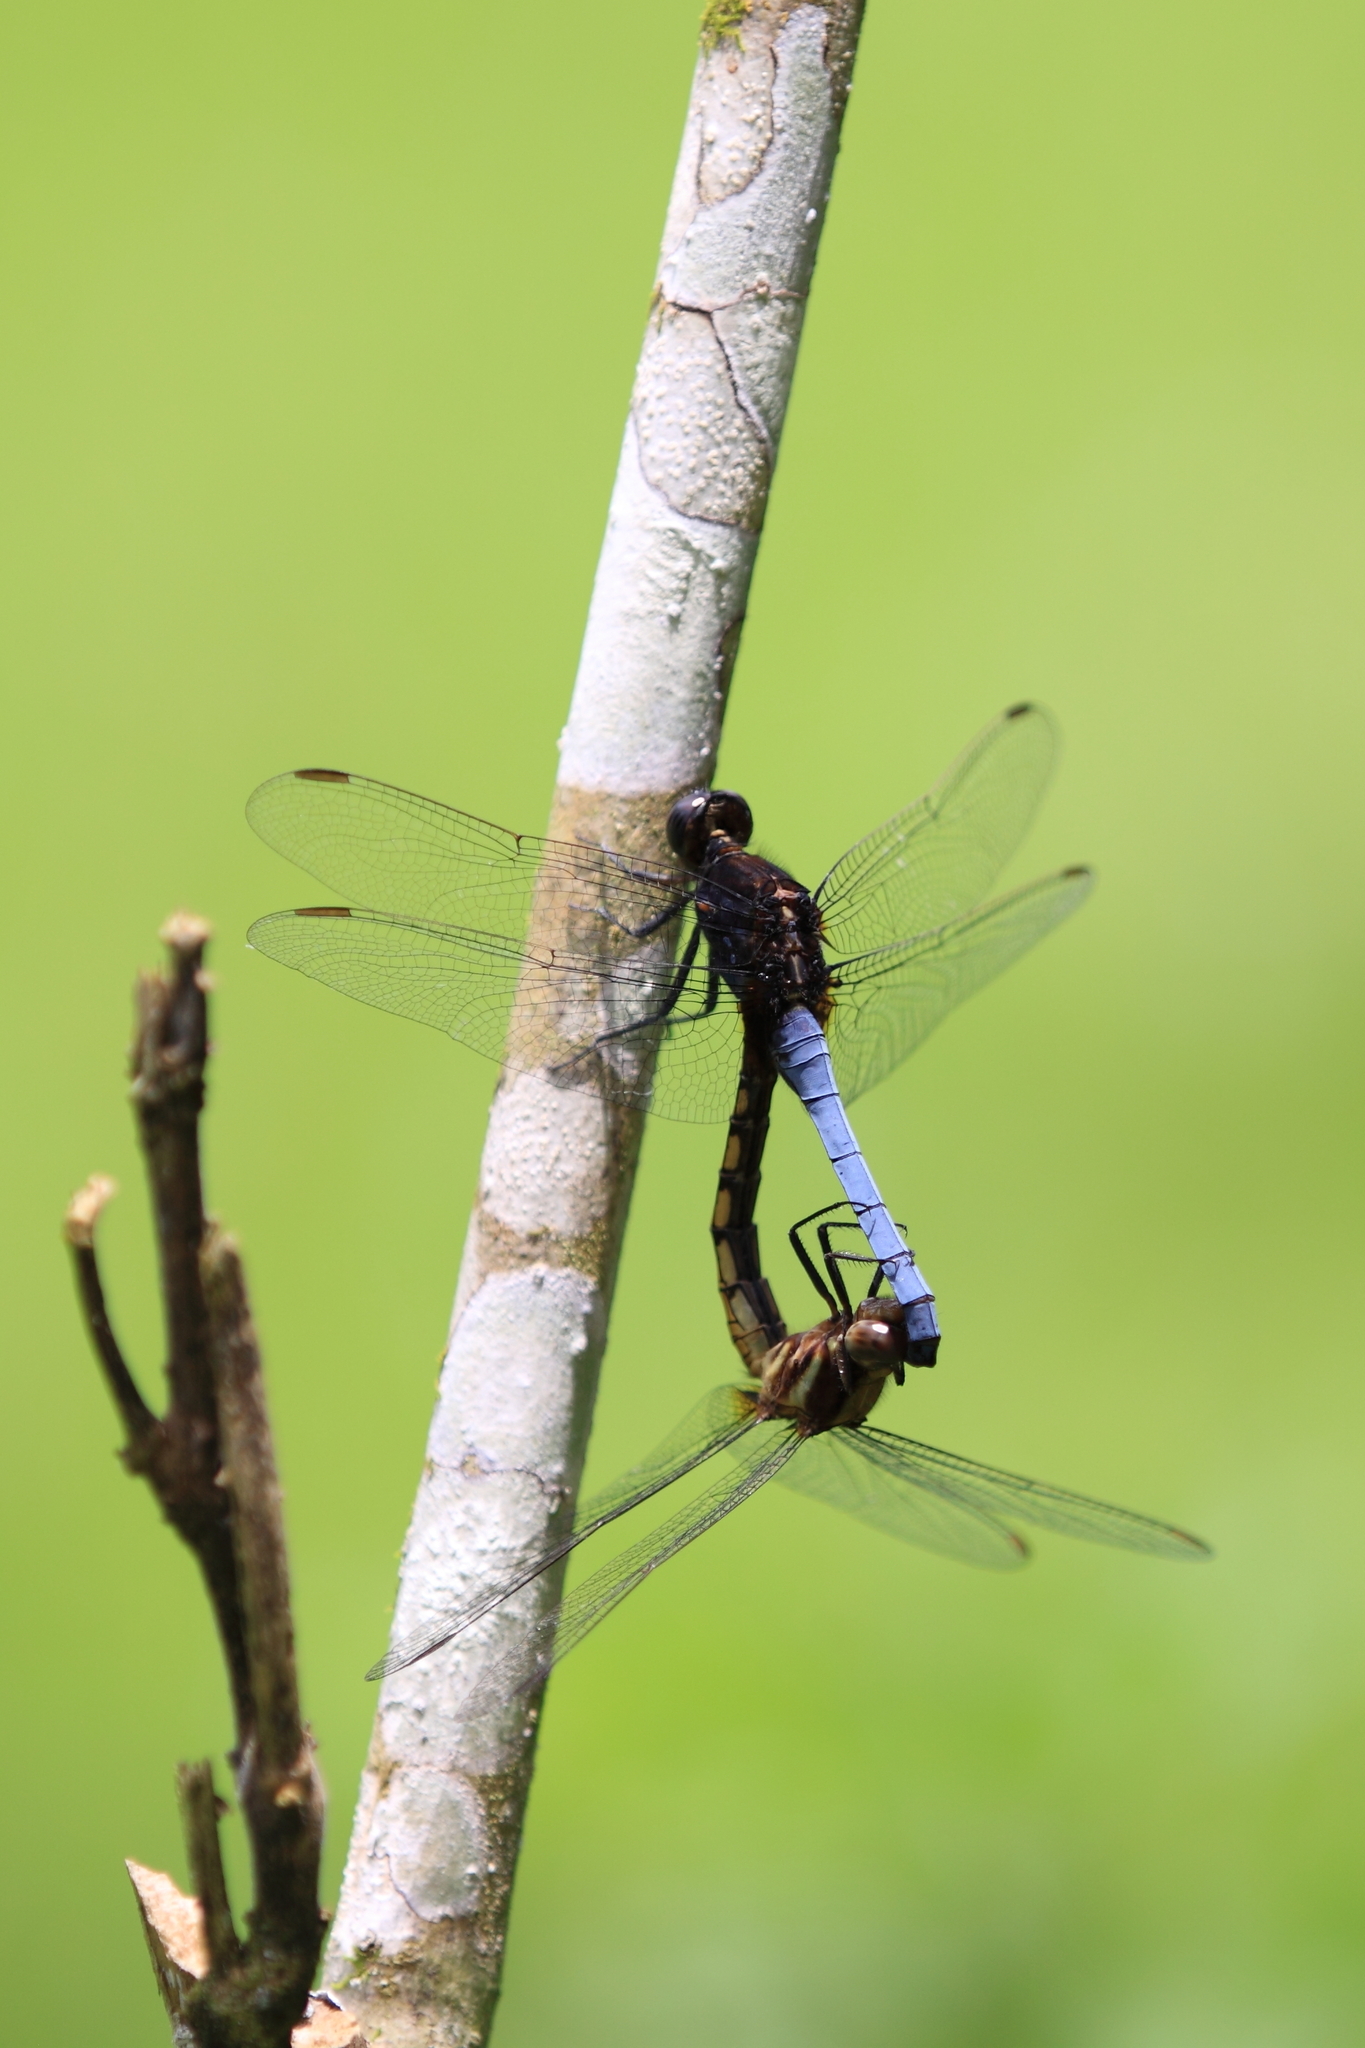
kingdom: Animalia
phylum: Arthropoda
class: Insecta
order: Odonata
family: Libellulidae
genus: Orthetrum
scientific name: Orthetrum glaucum
